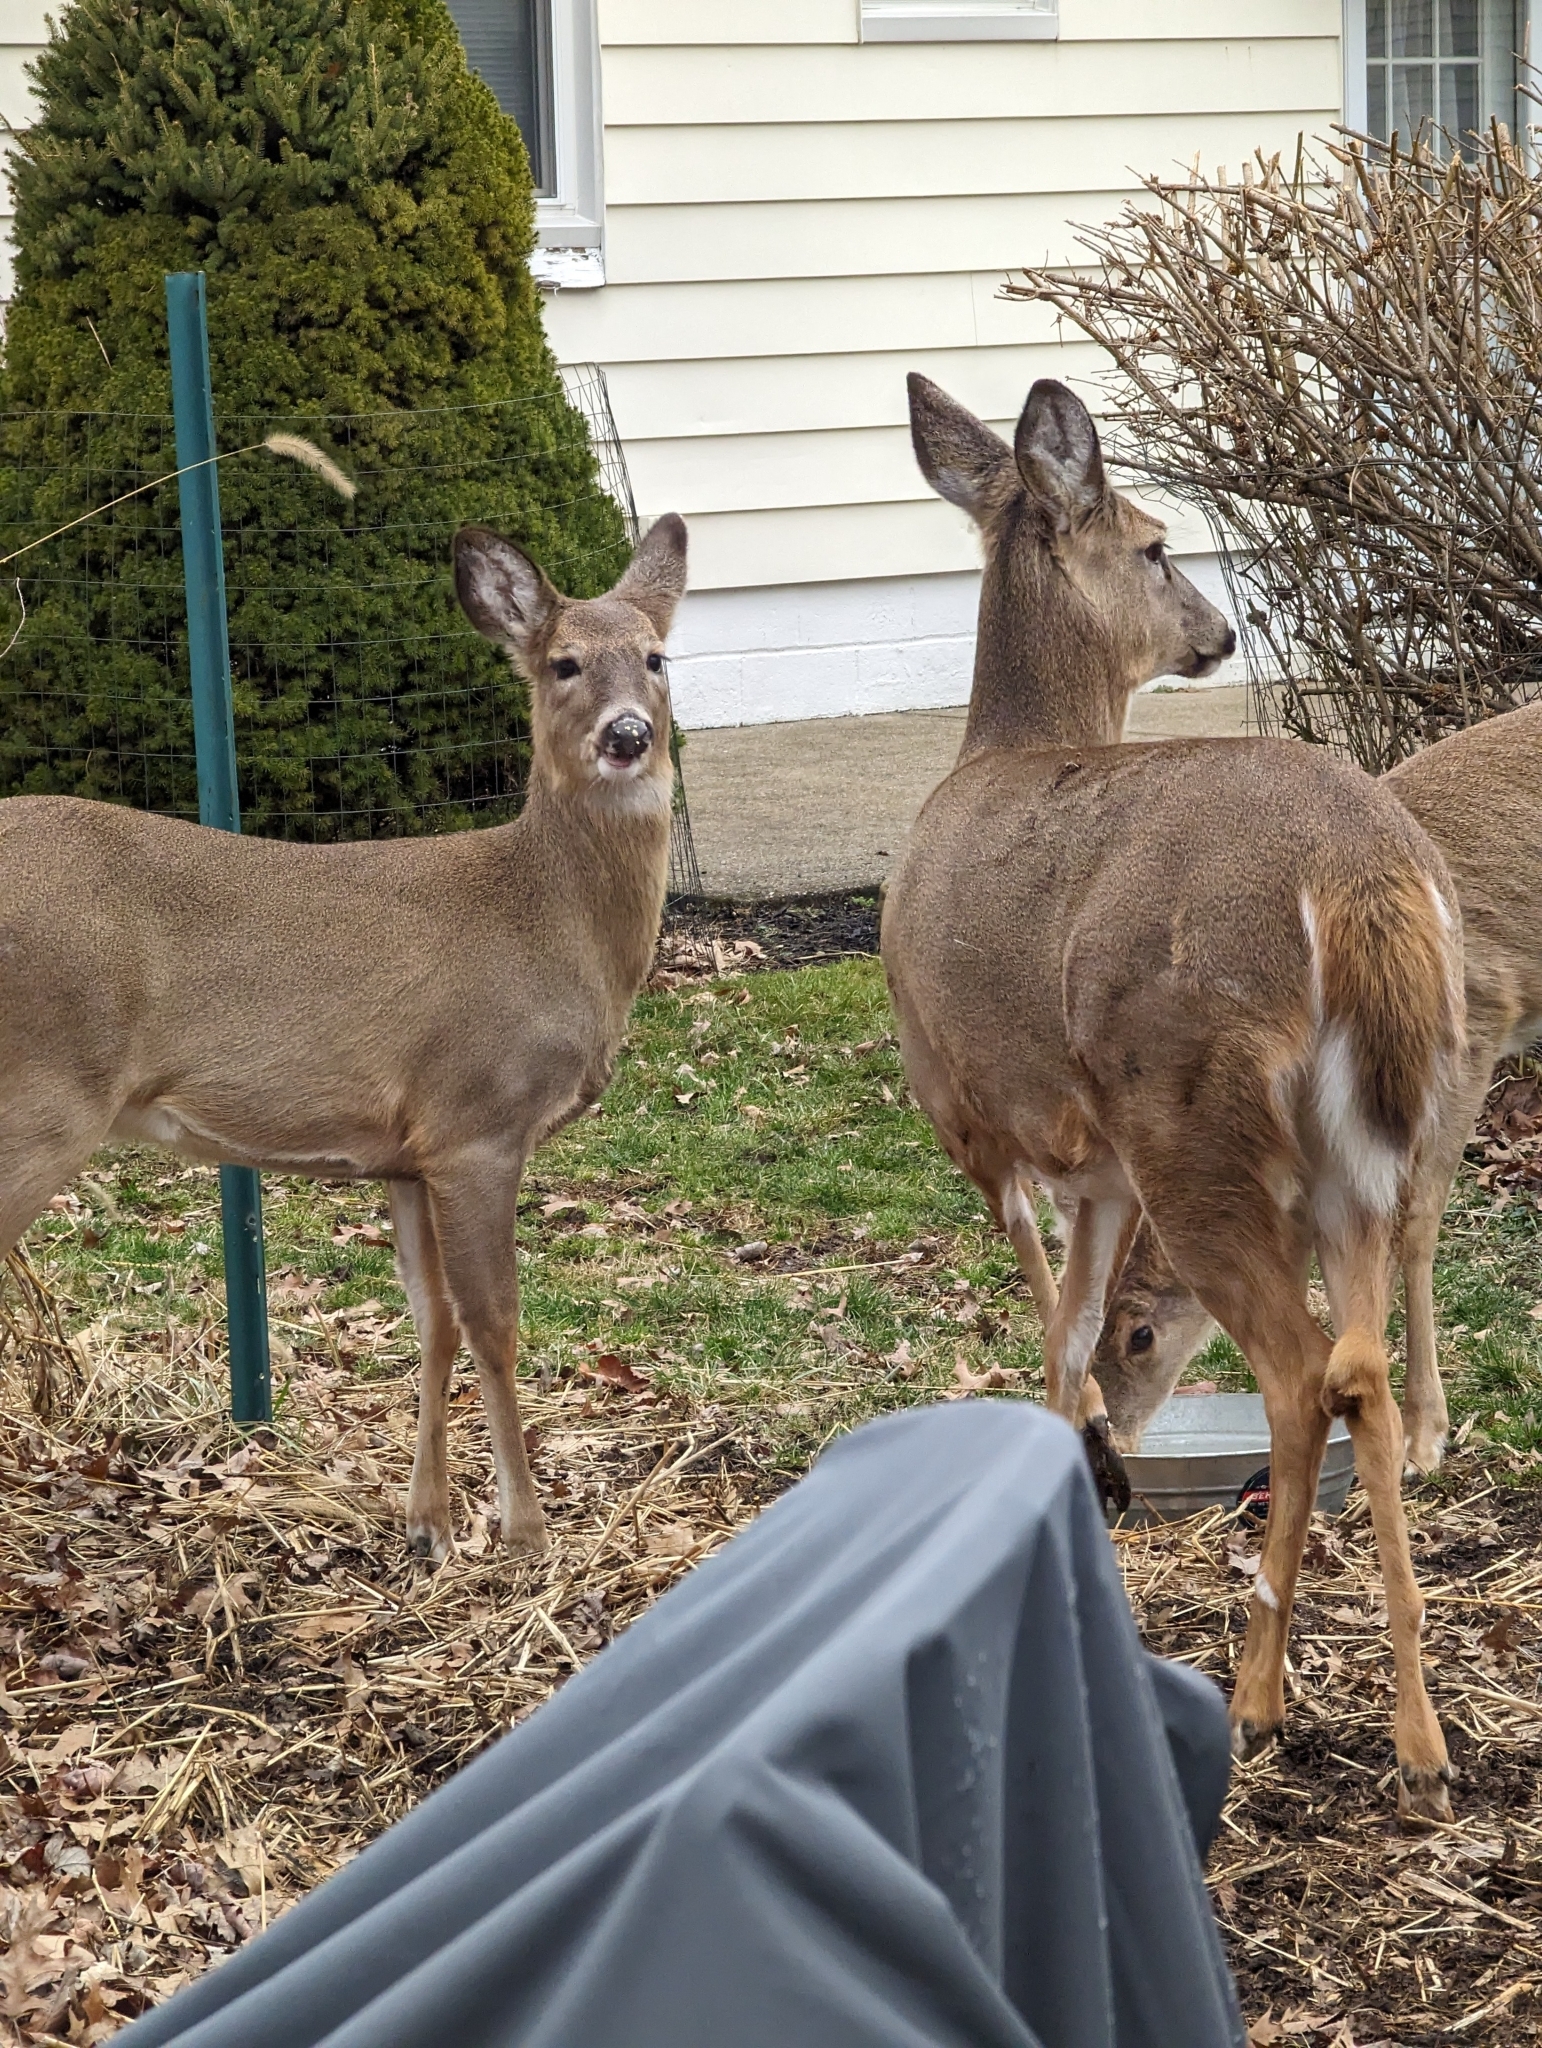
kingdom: Animalia
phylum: Chordata
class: Mammalia
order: Artiodactyla
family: Cervidae
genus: Odocoileus
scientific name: Odocoileus virginianus
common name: White-tailed deer
